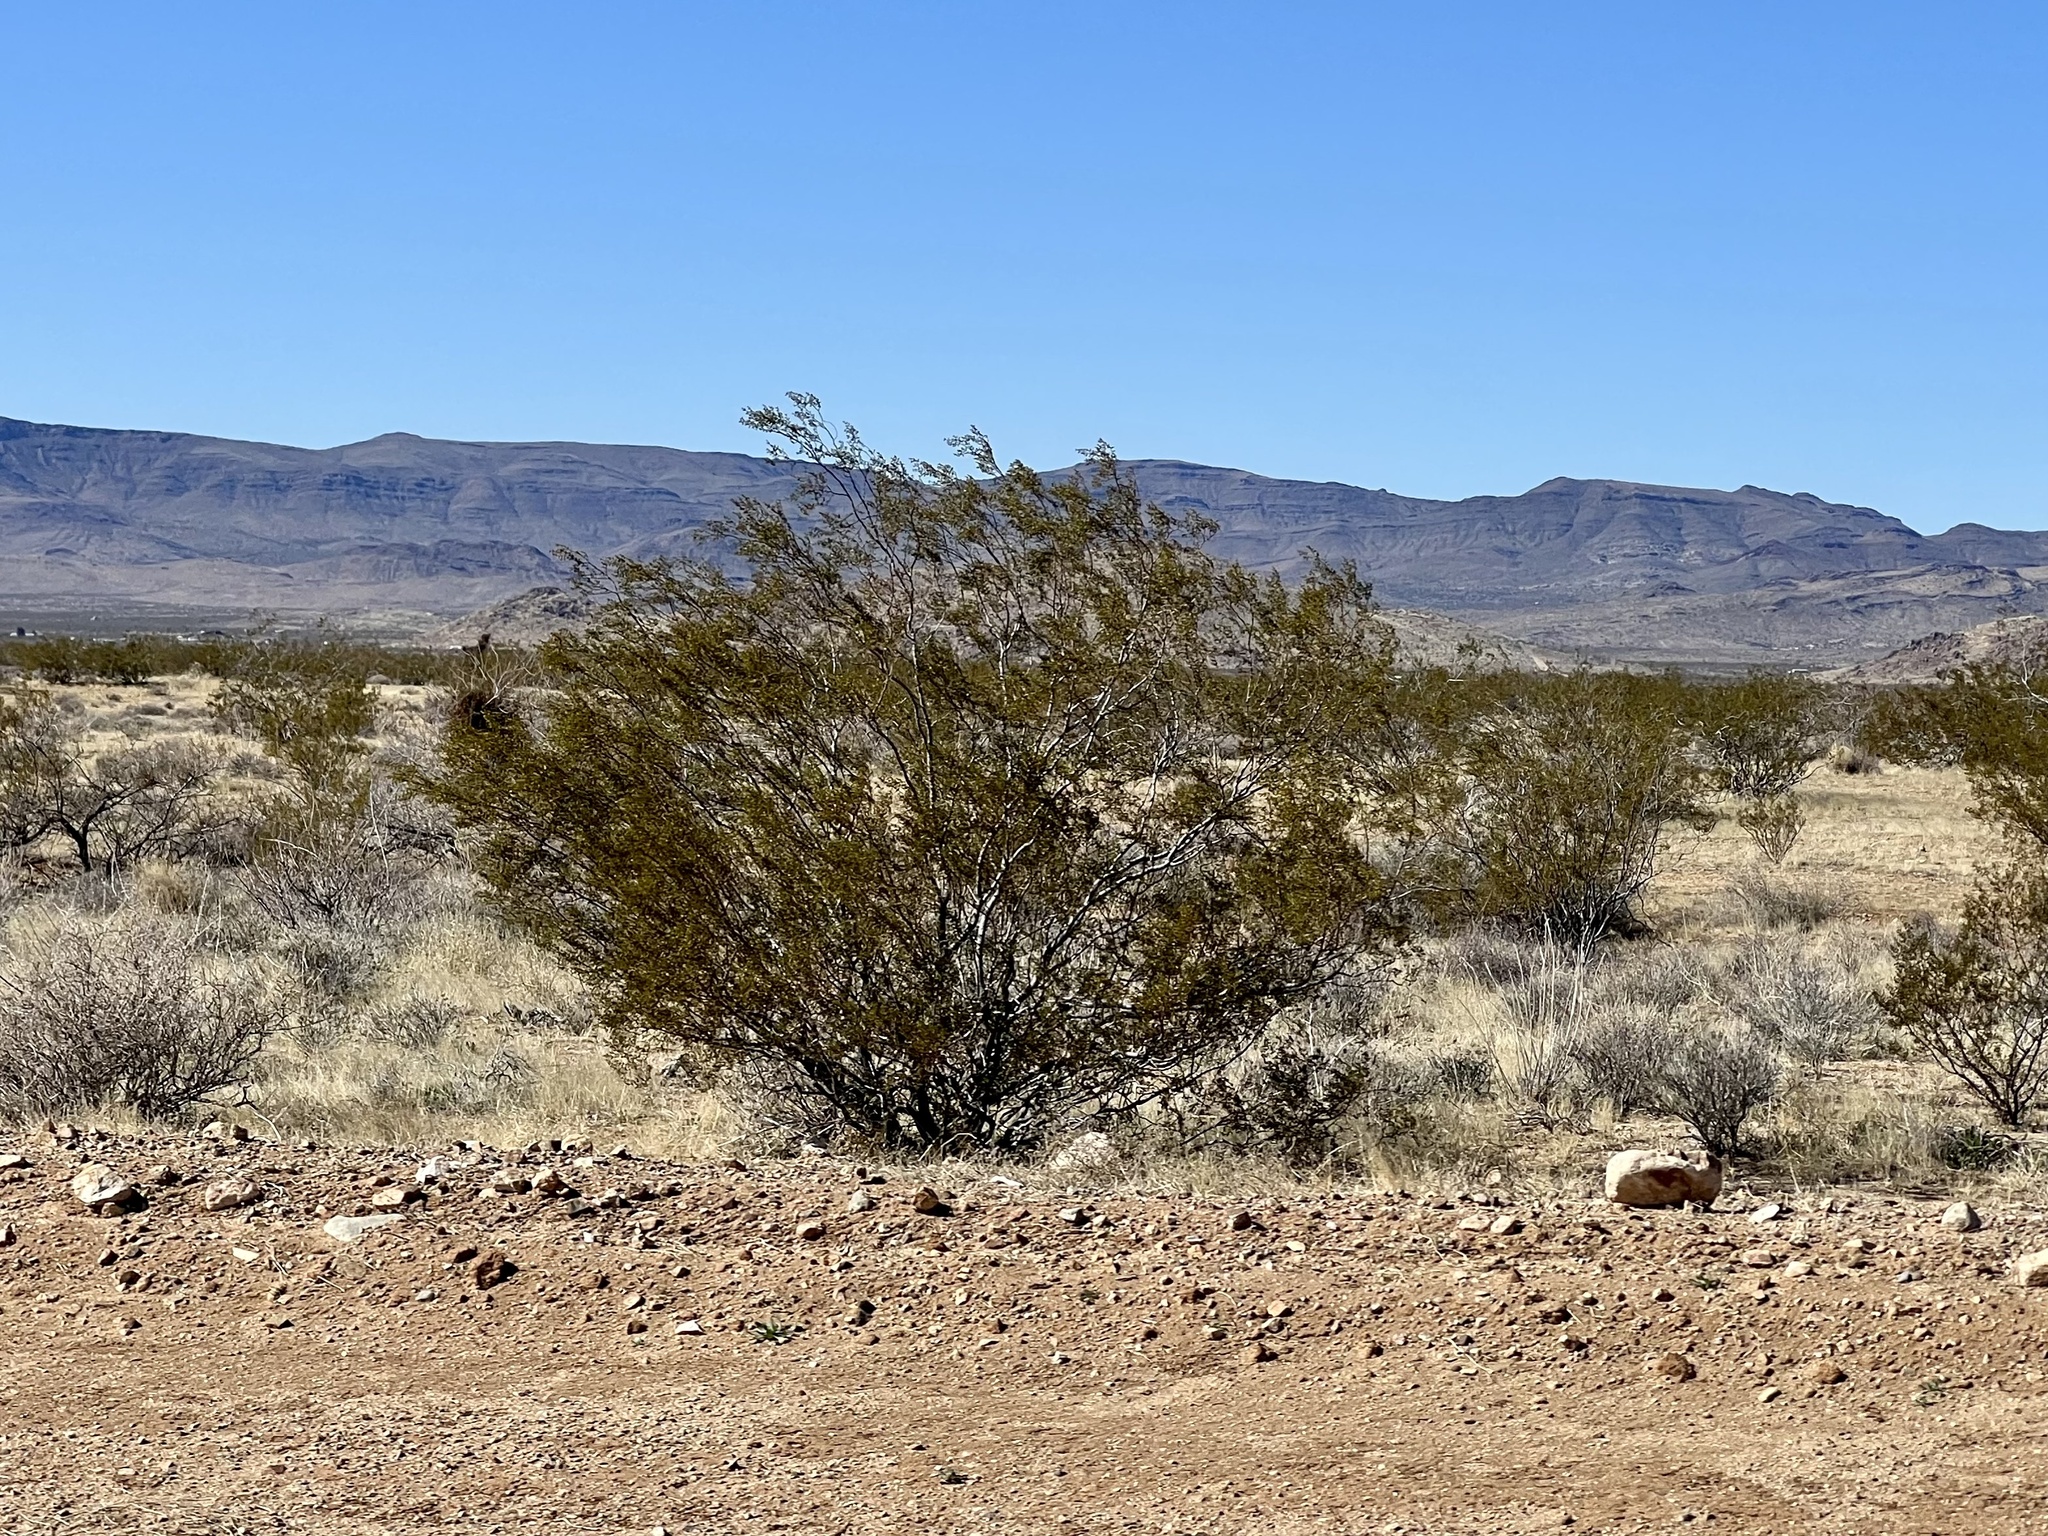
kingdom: Plantae
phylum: Tracheophyta
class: Magnoliopsida
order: Zygophyllales
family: Zygophyllaceae
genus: Larrea
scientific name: Larrea tridentata
